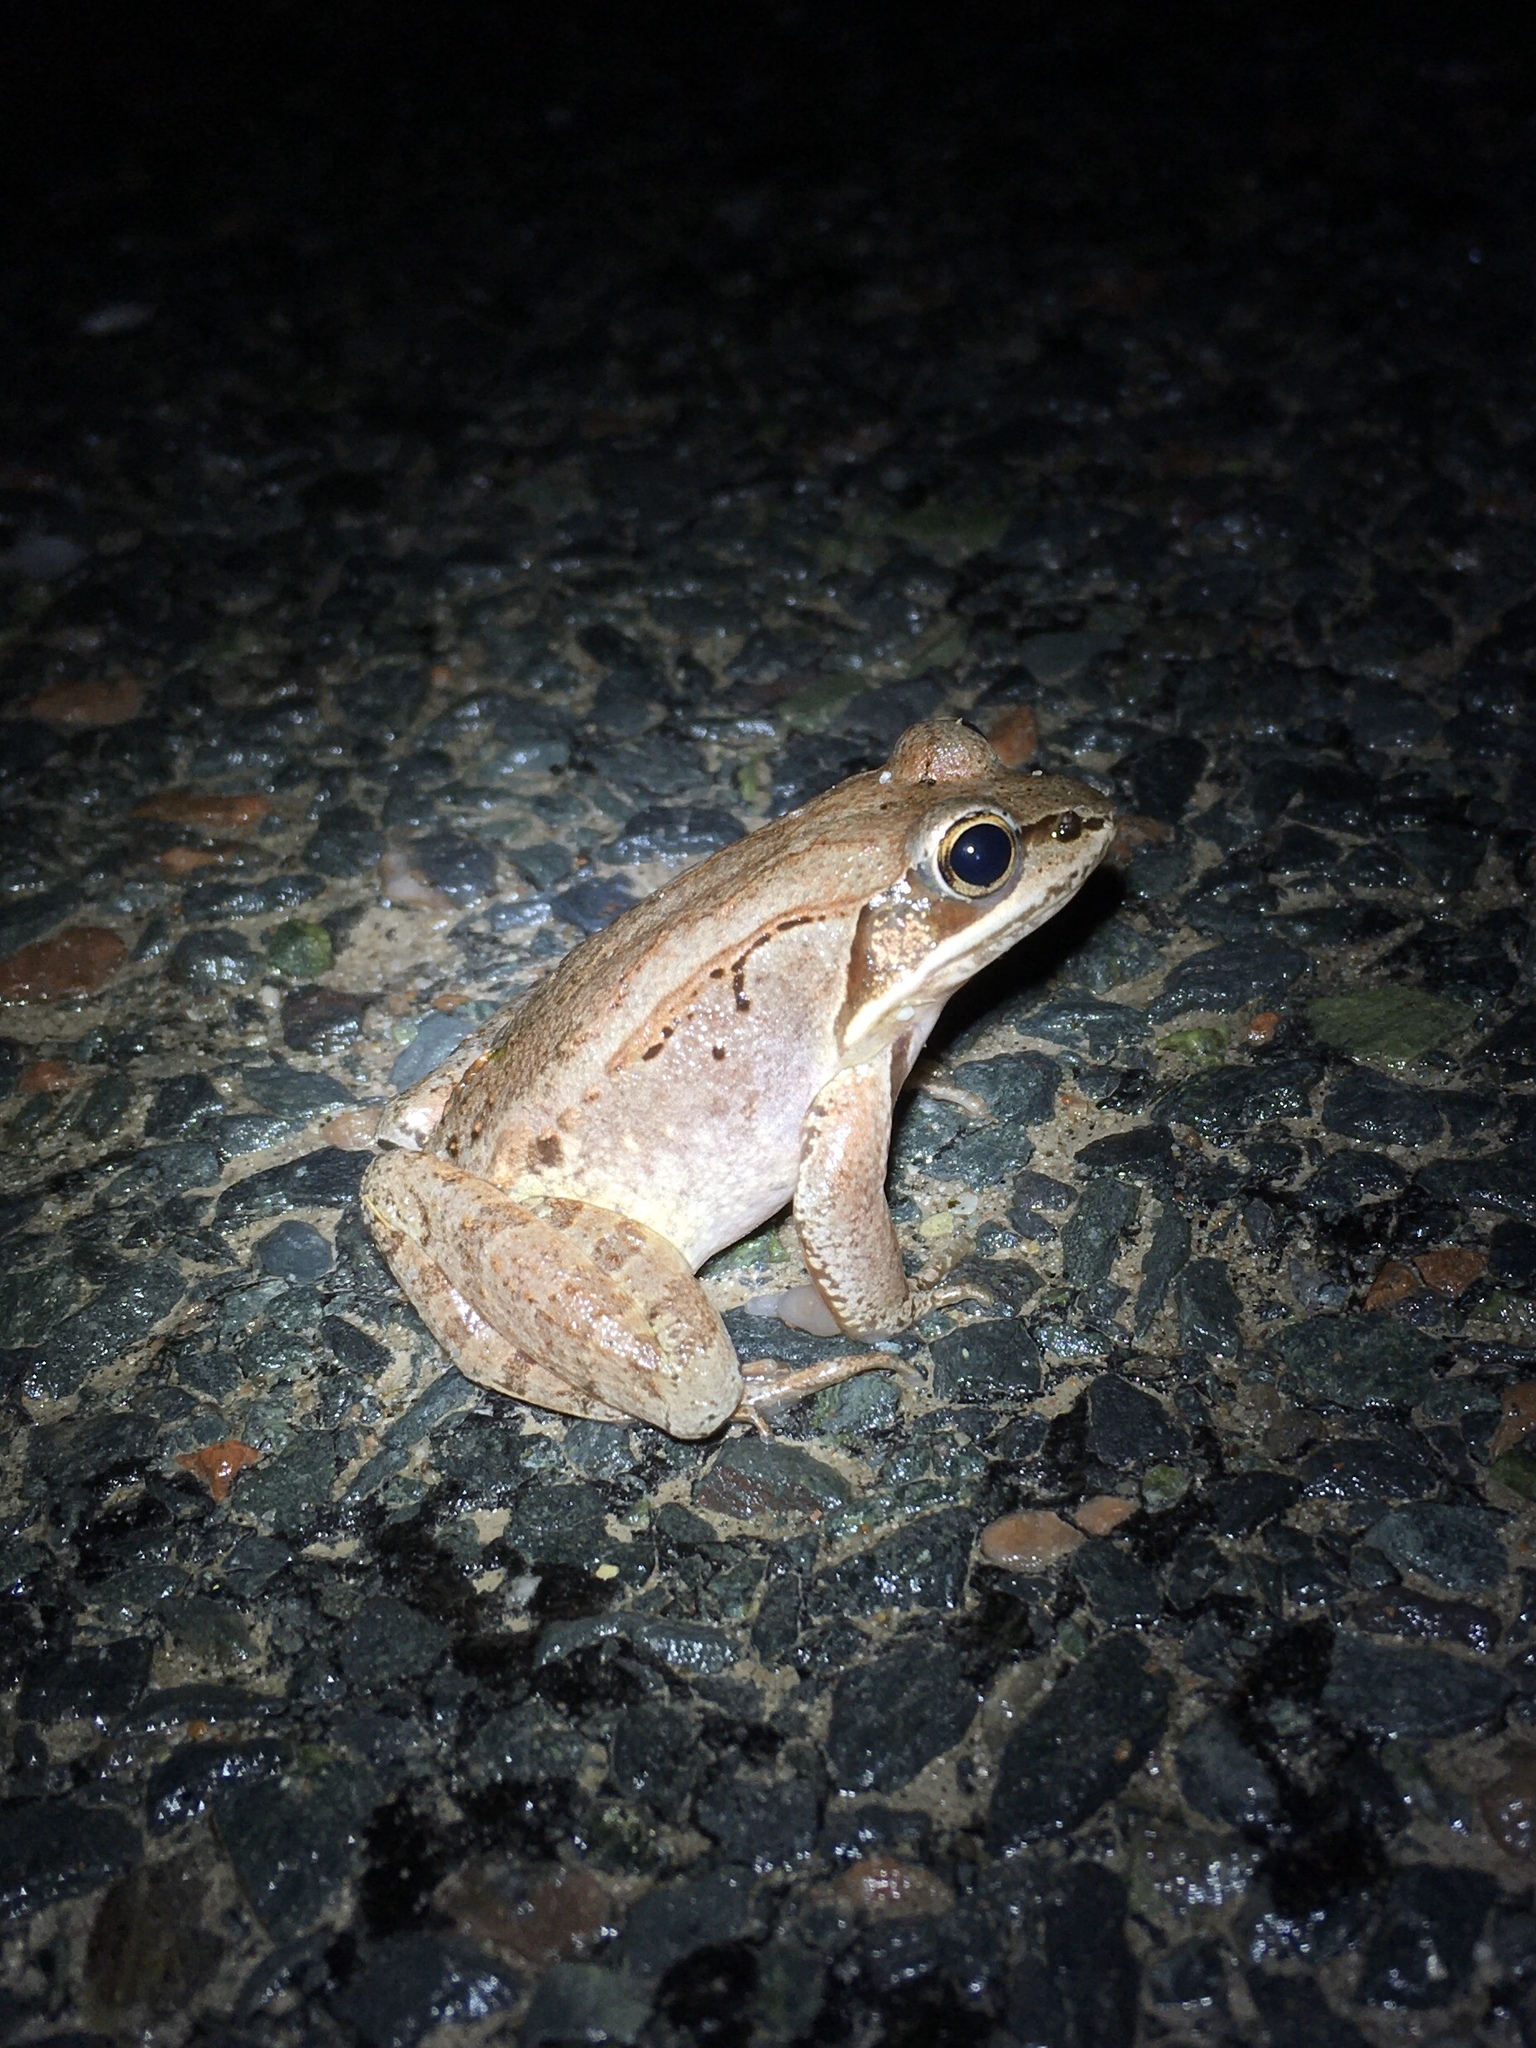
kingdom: Animalia
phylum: Chordata
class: Amphibia
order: Anura
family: Ranidae
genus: Lithobates
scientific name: Lithobates sylvaticus
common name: Wood frog
